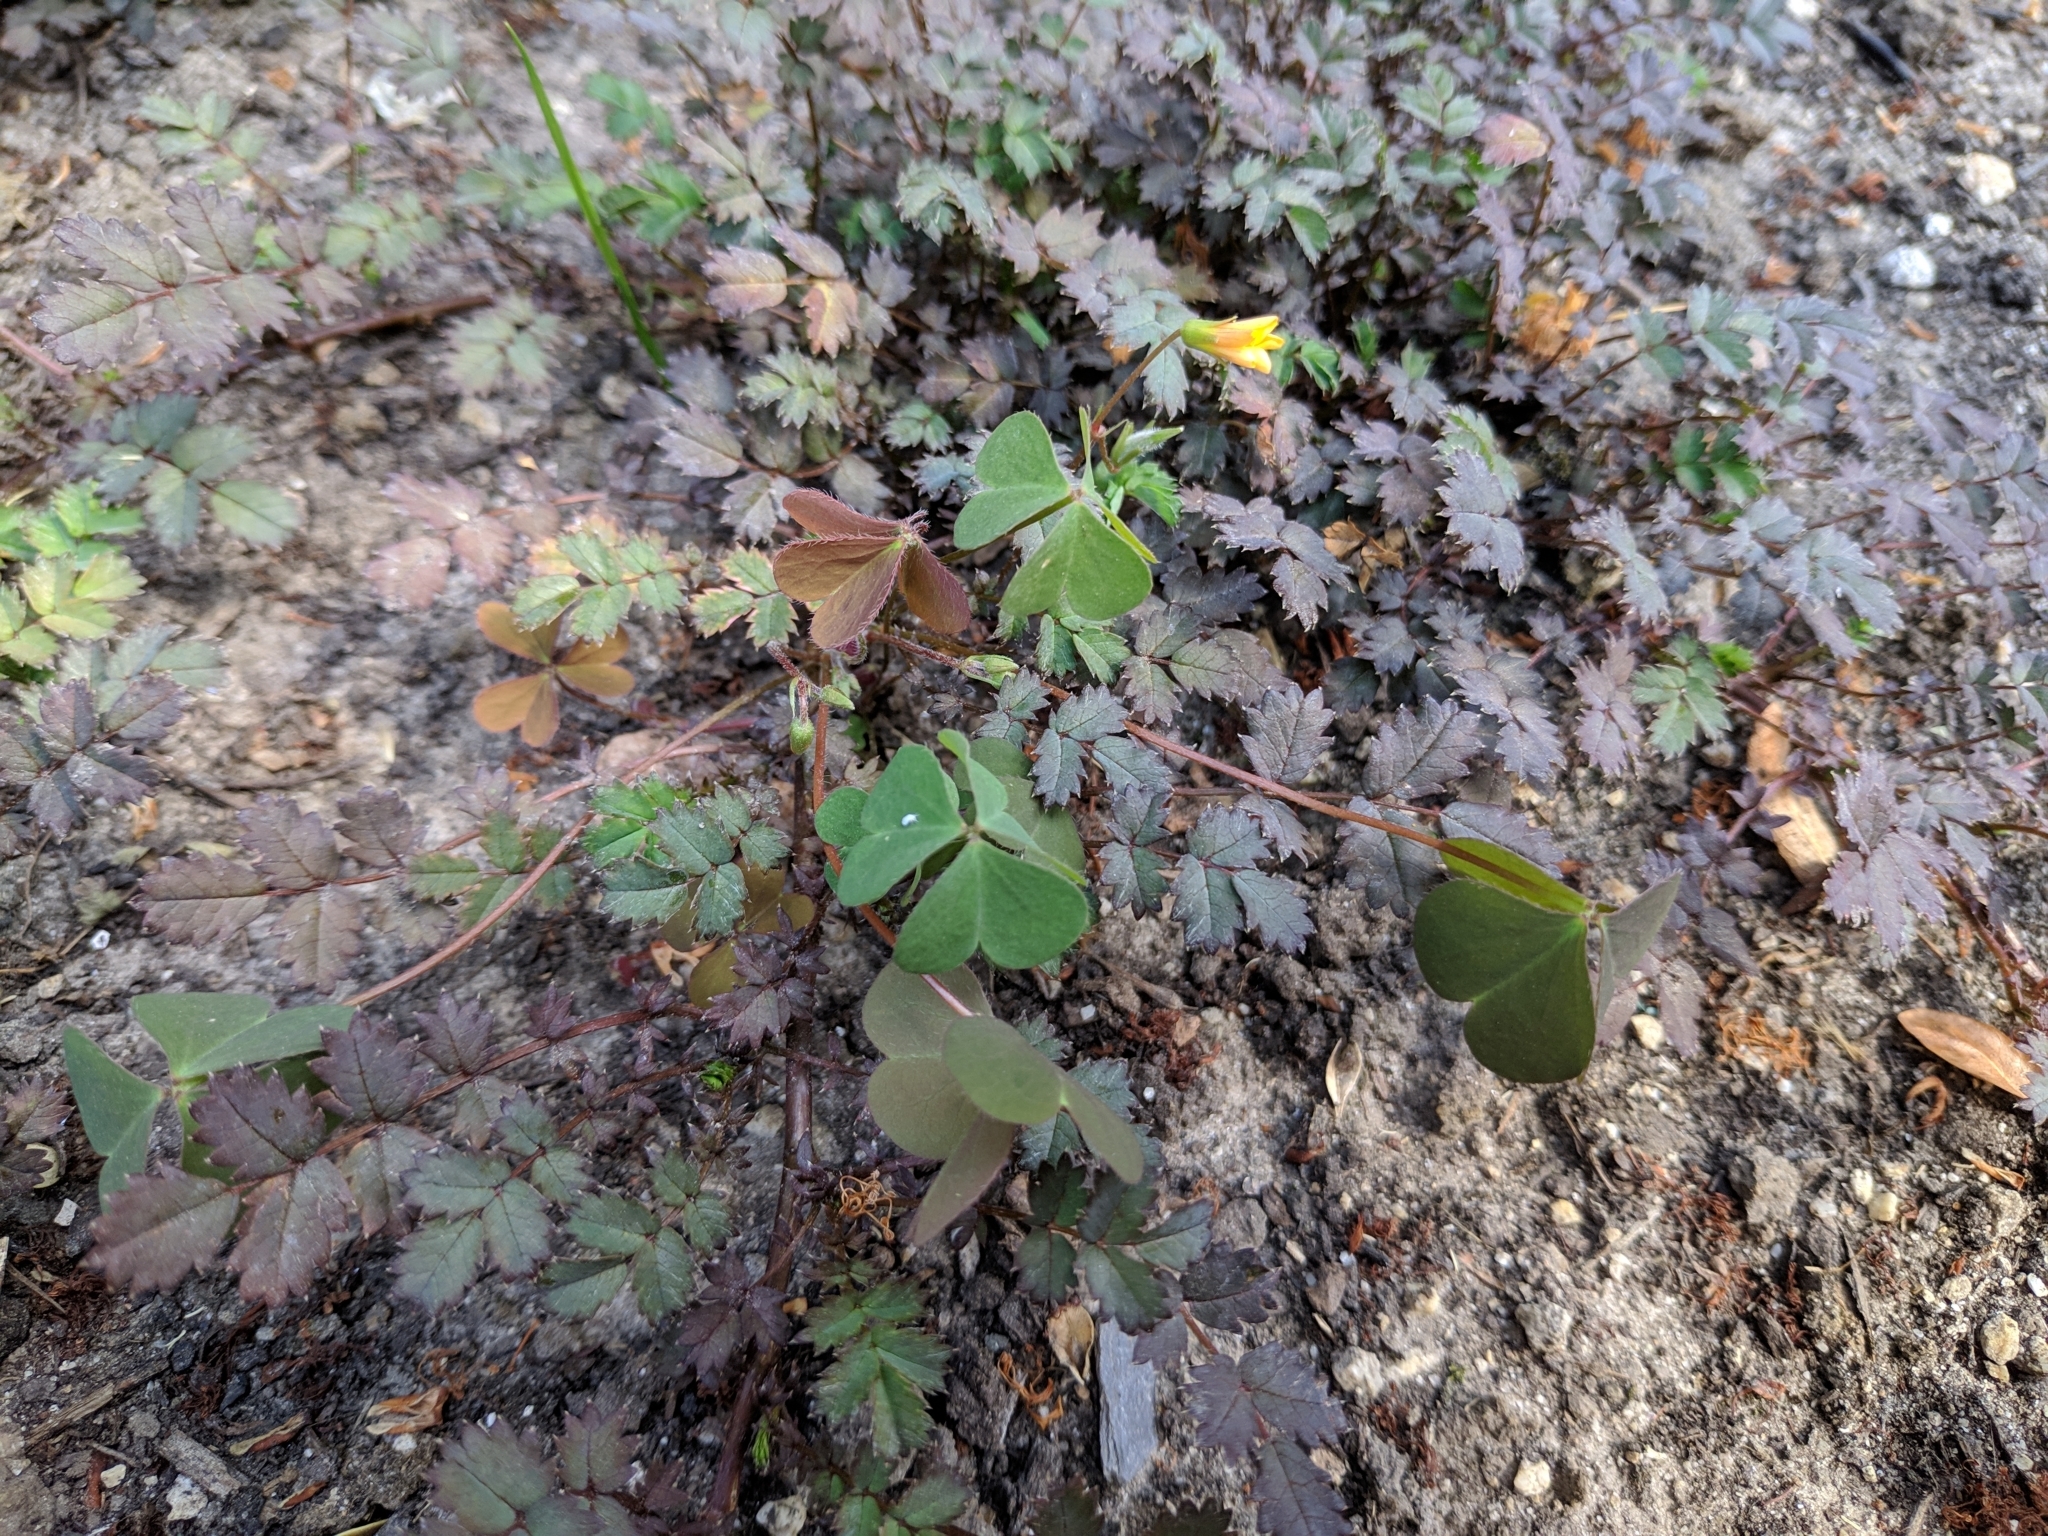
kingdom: Plantae
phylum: Tracheophyta
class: Magnoliopsida
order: Oxalidales
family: Oxalidaceae
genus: Oxalis
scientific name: Oxalis corniculata
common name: Procumbent yellow-sorrel
